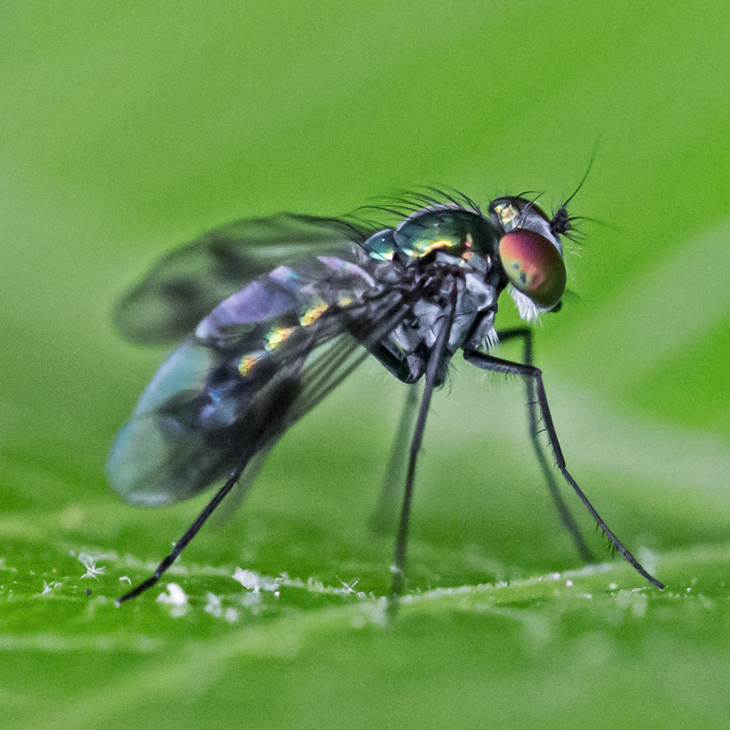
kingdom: Animalia
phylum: Arthropoda
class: Insecta
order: Diptera
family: Dolichopodidae
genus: Condylostylus
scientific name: Condylostylus patibulatus
